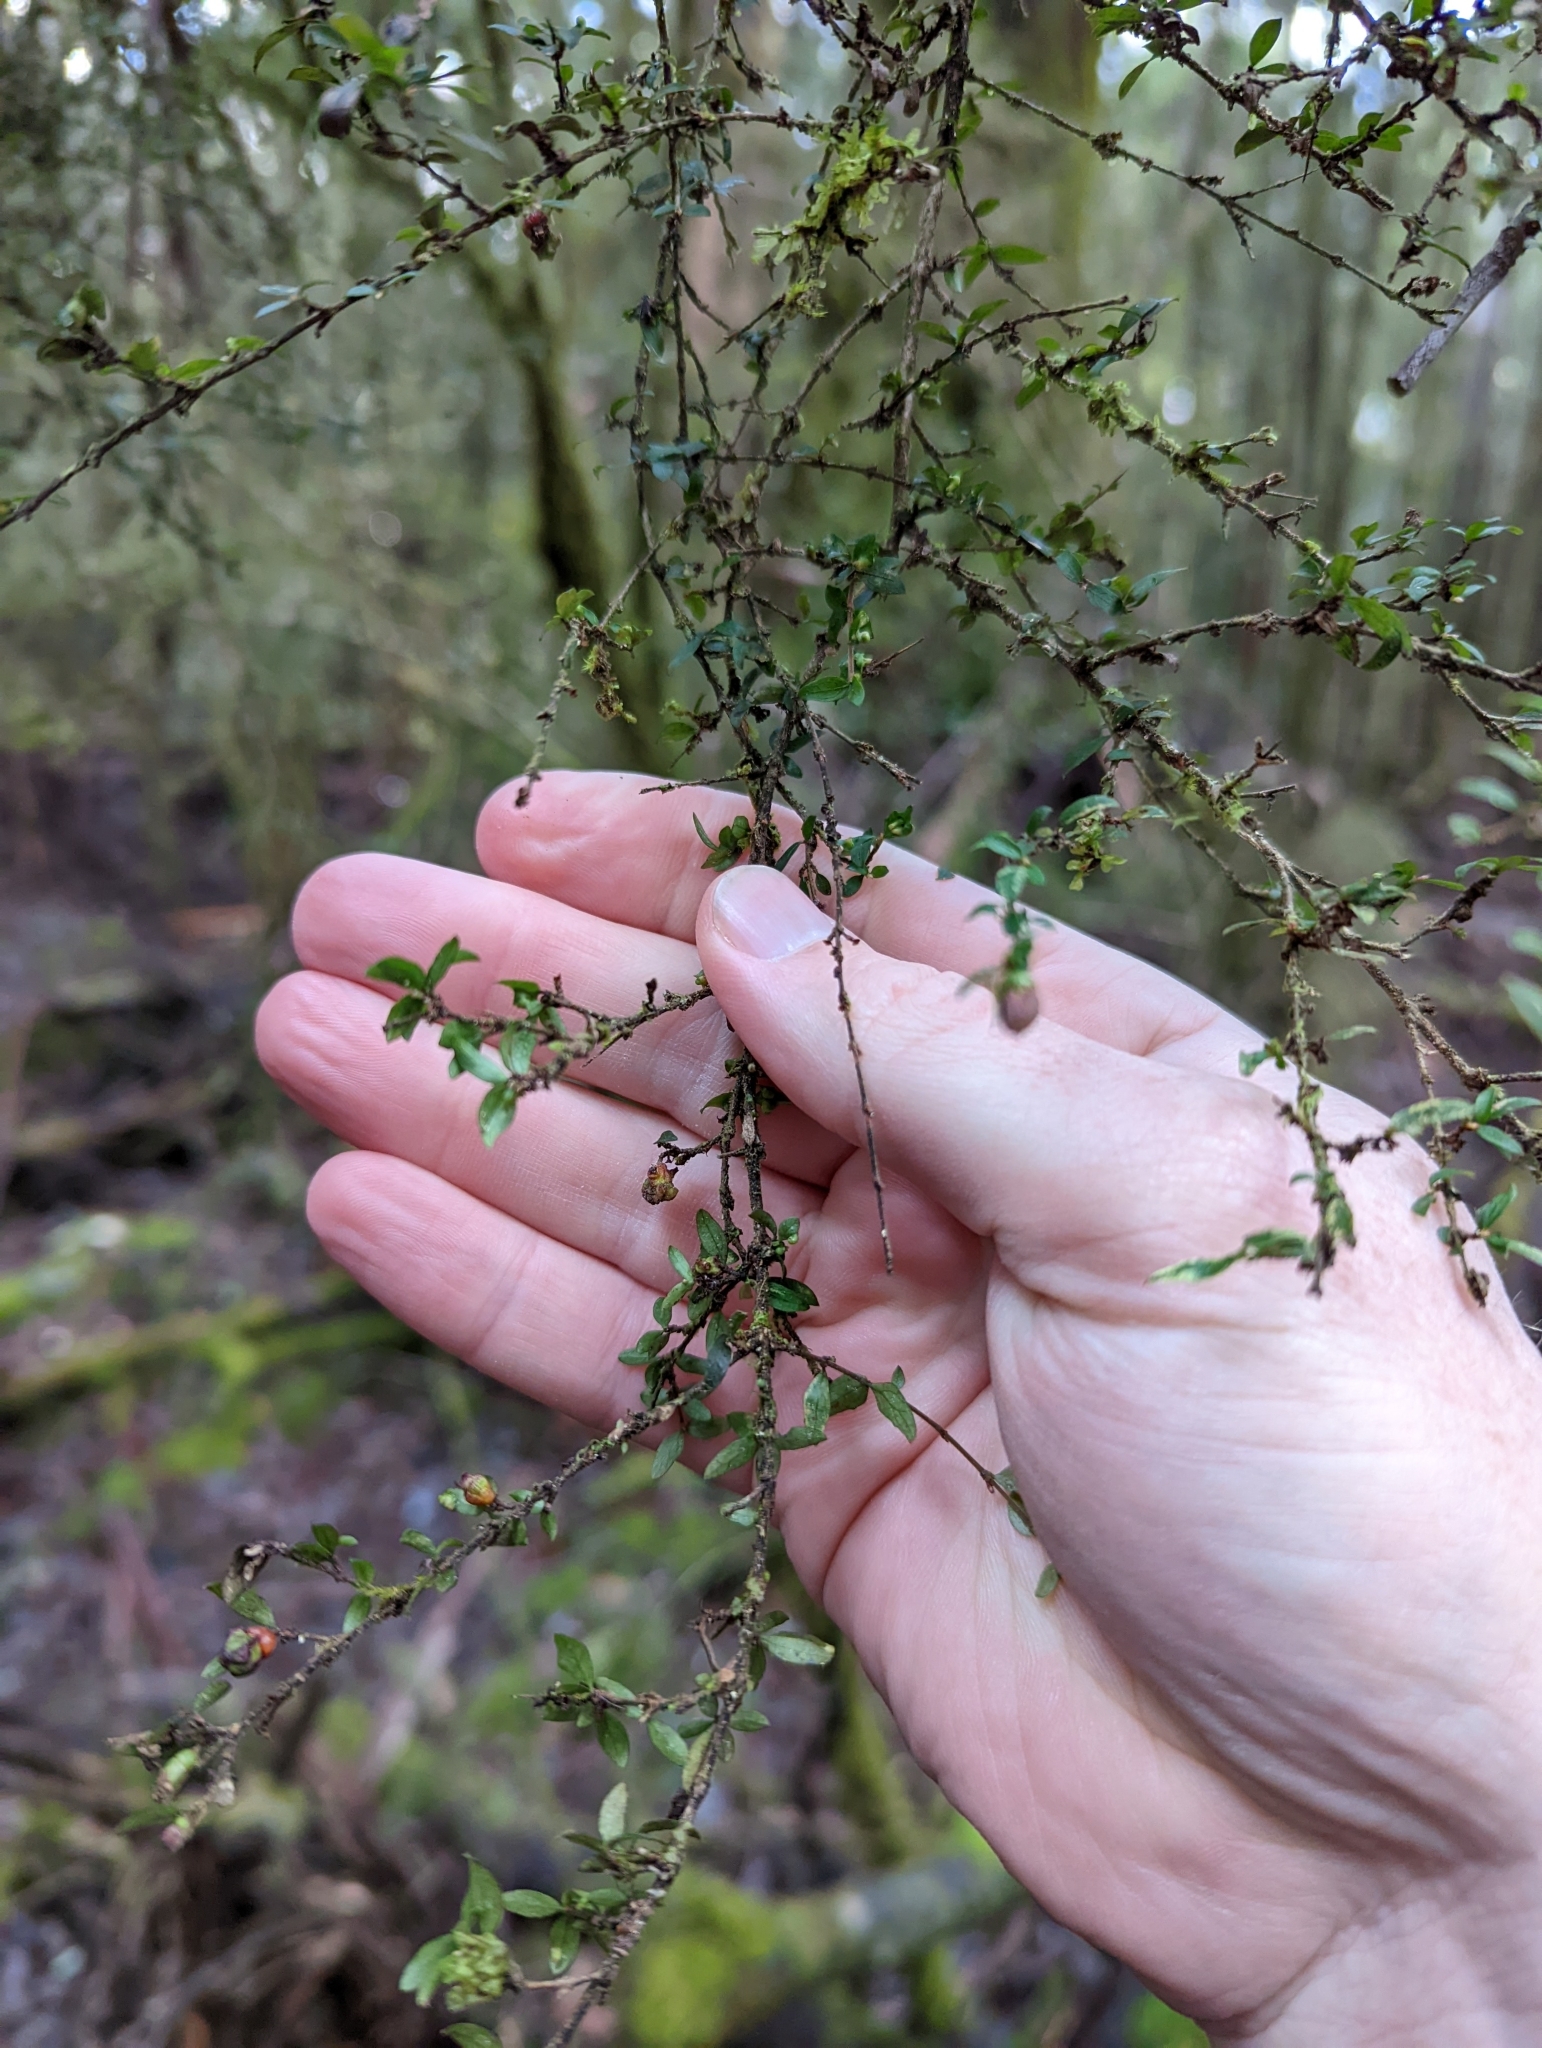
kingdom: Plantae
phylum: Tracheophyta
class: Magnoliopsida
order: Gentianales
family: Rubiaceae
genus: Coprosma
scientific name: Coprosma quadrifida
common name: Prickly currantbush
